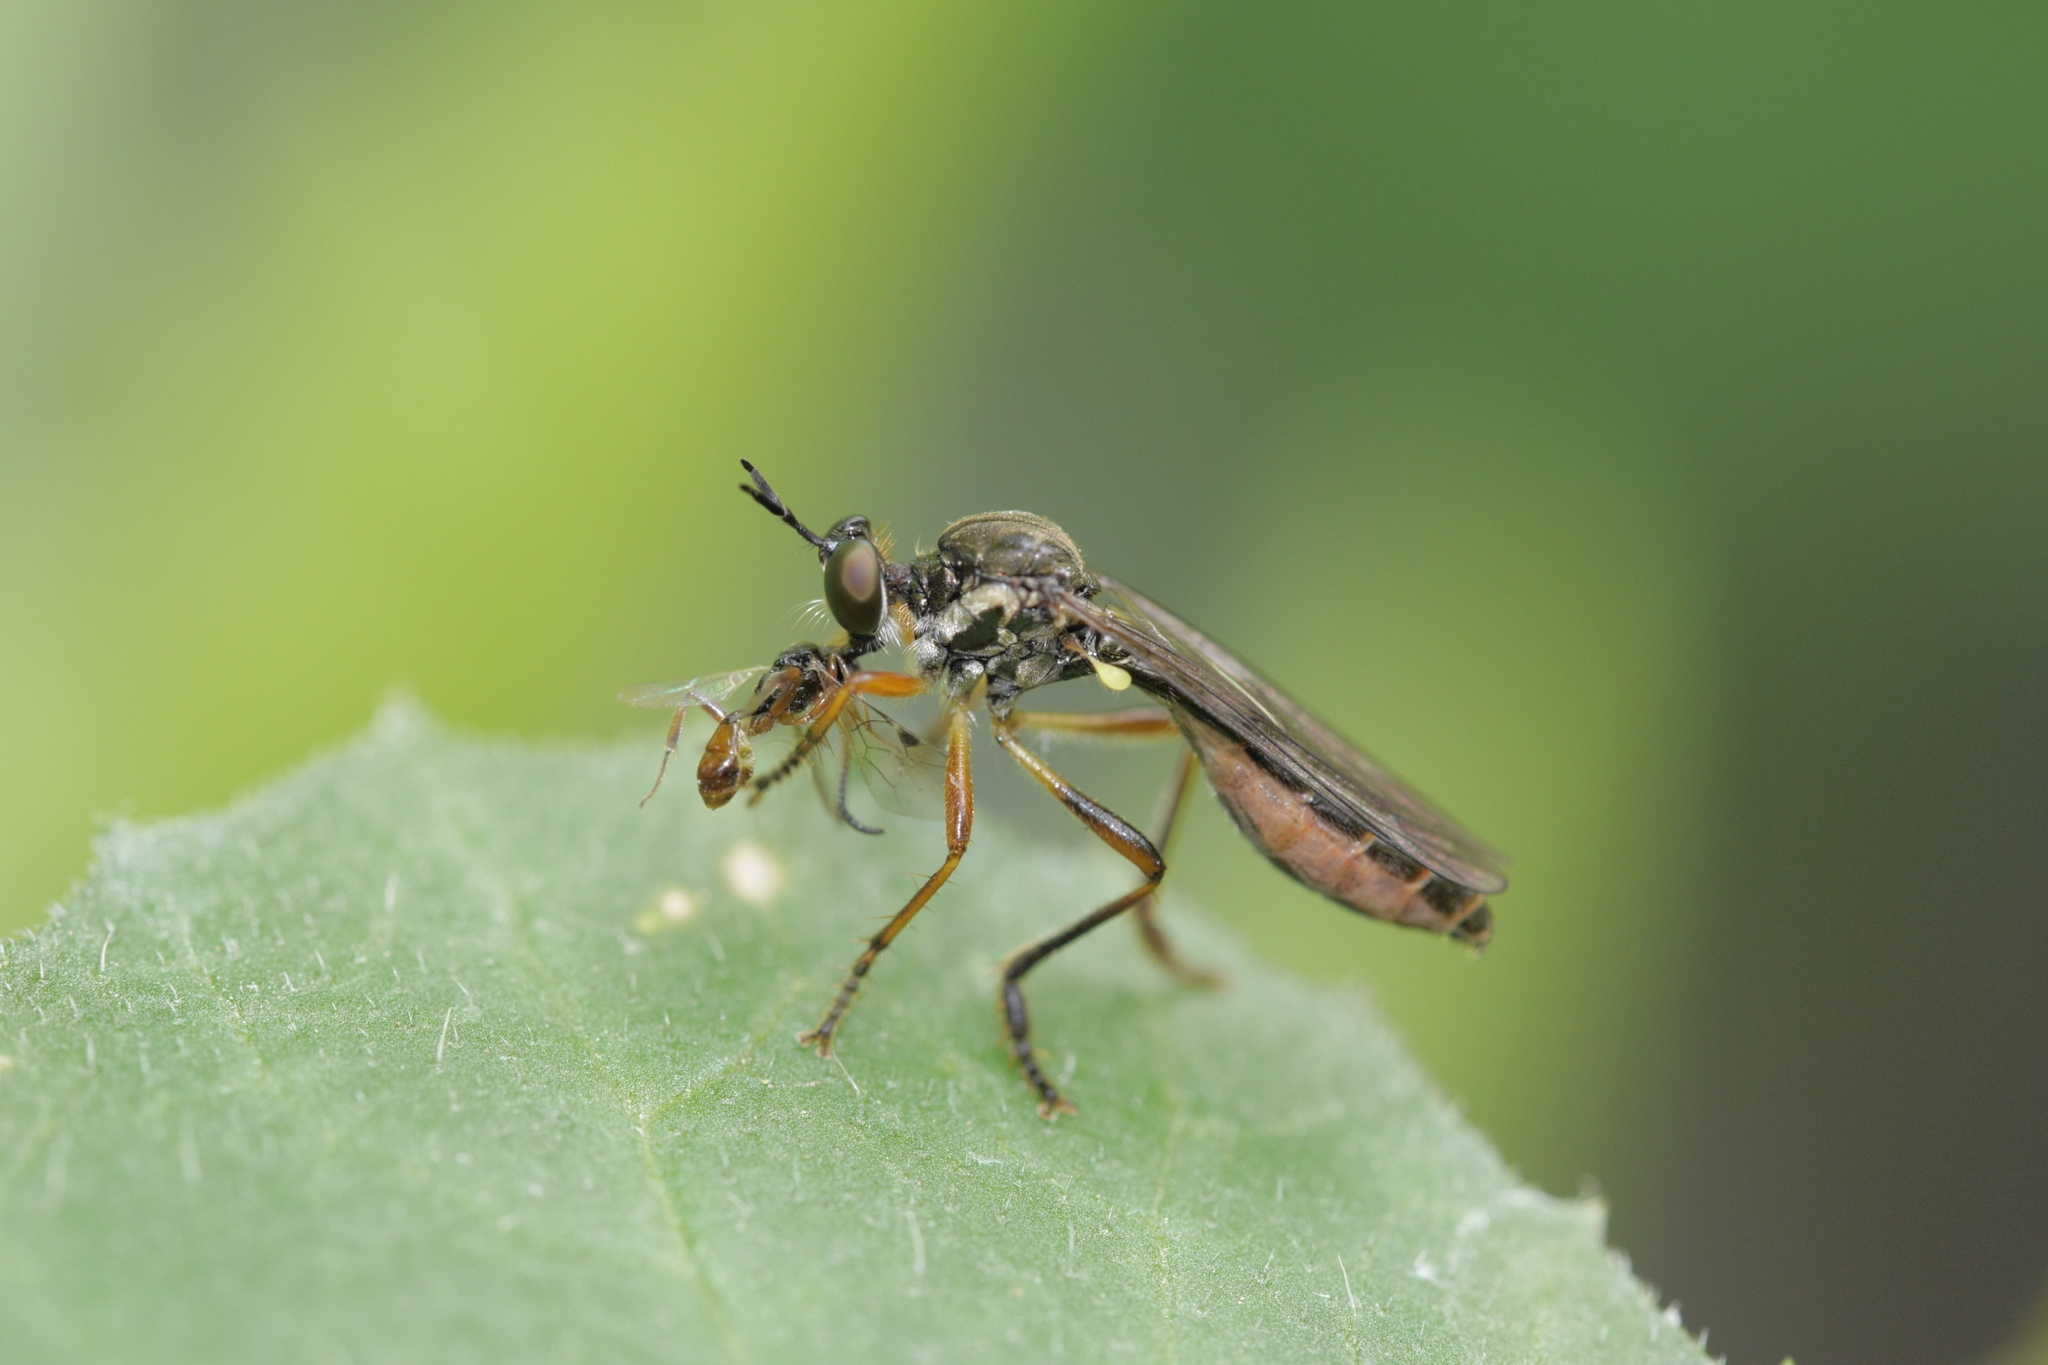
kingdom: Animalia
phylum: Arthropoda
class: Insecta
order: Diptera
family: Asilidae
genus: Dioctria
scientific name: Dioctria hyalipennis
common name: Stripe-legged robberfly
